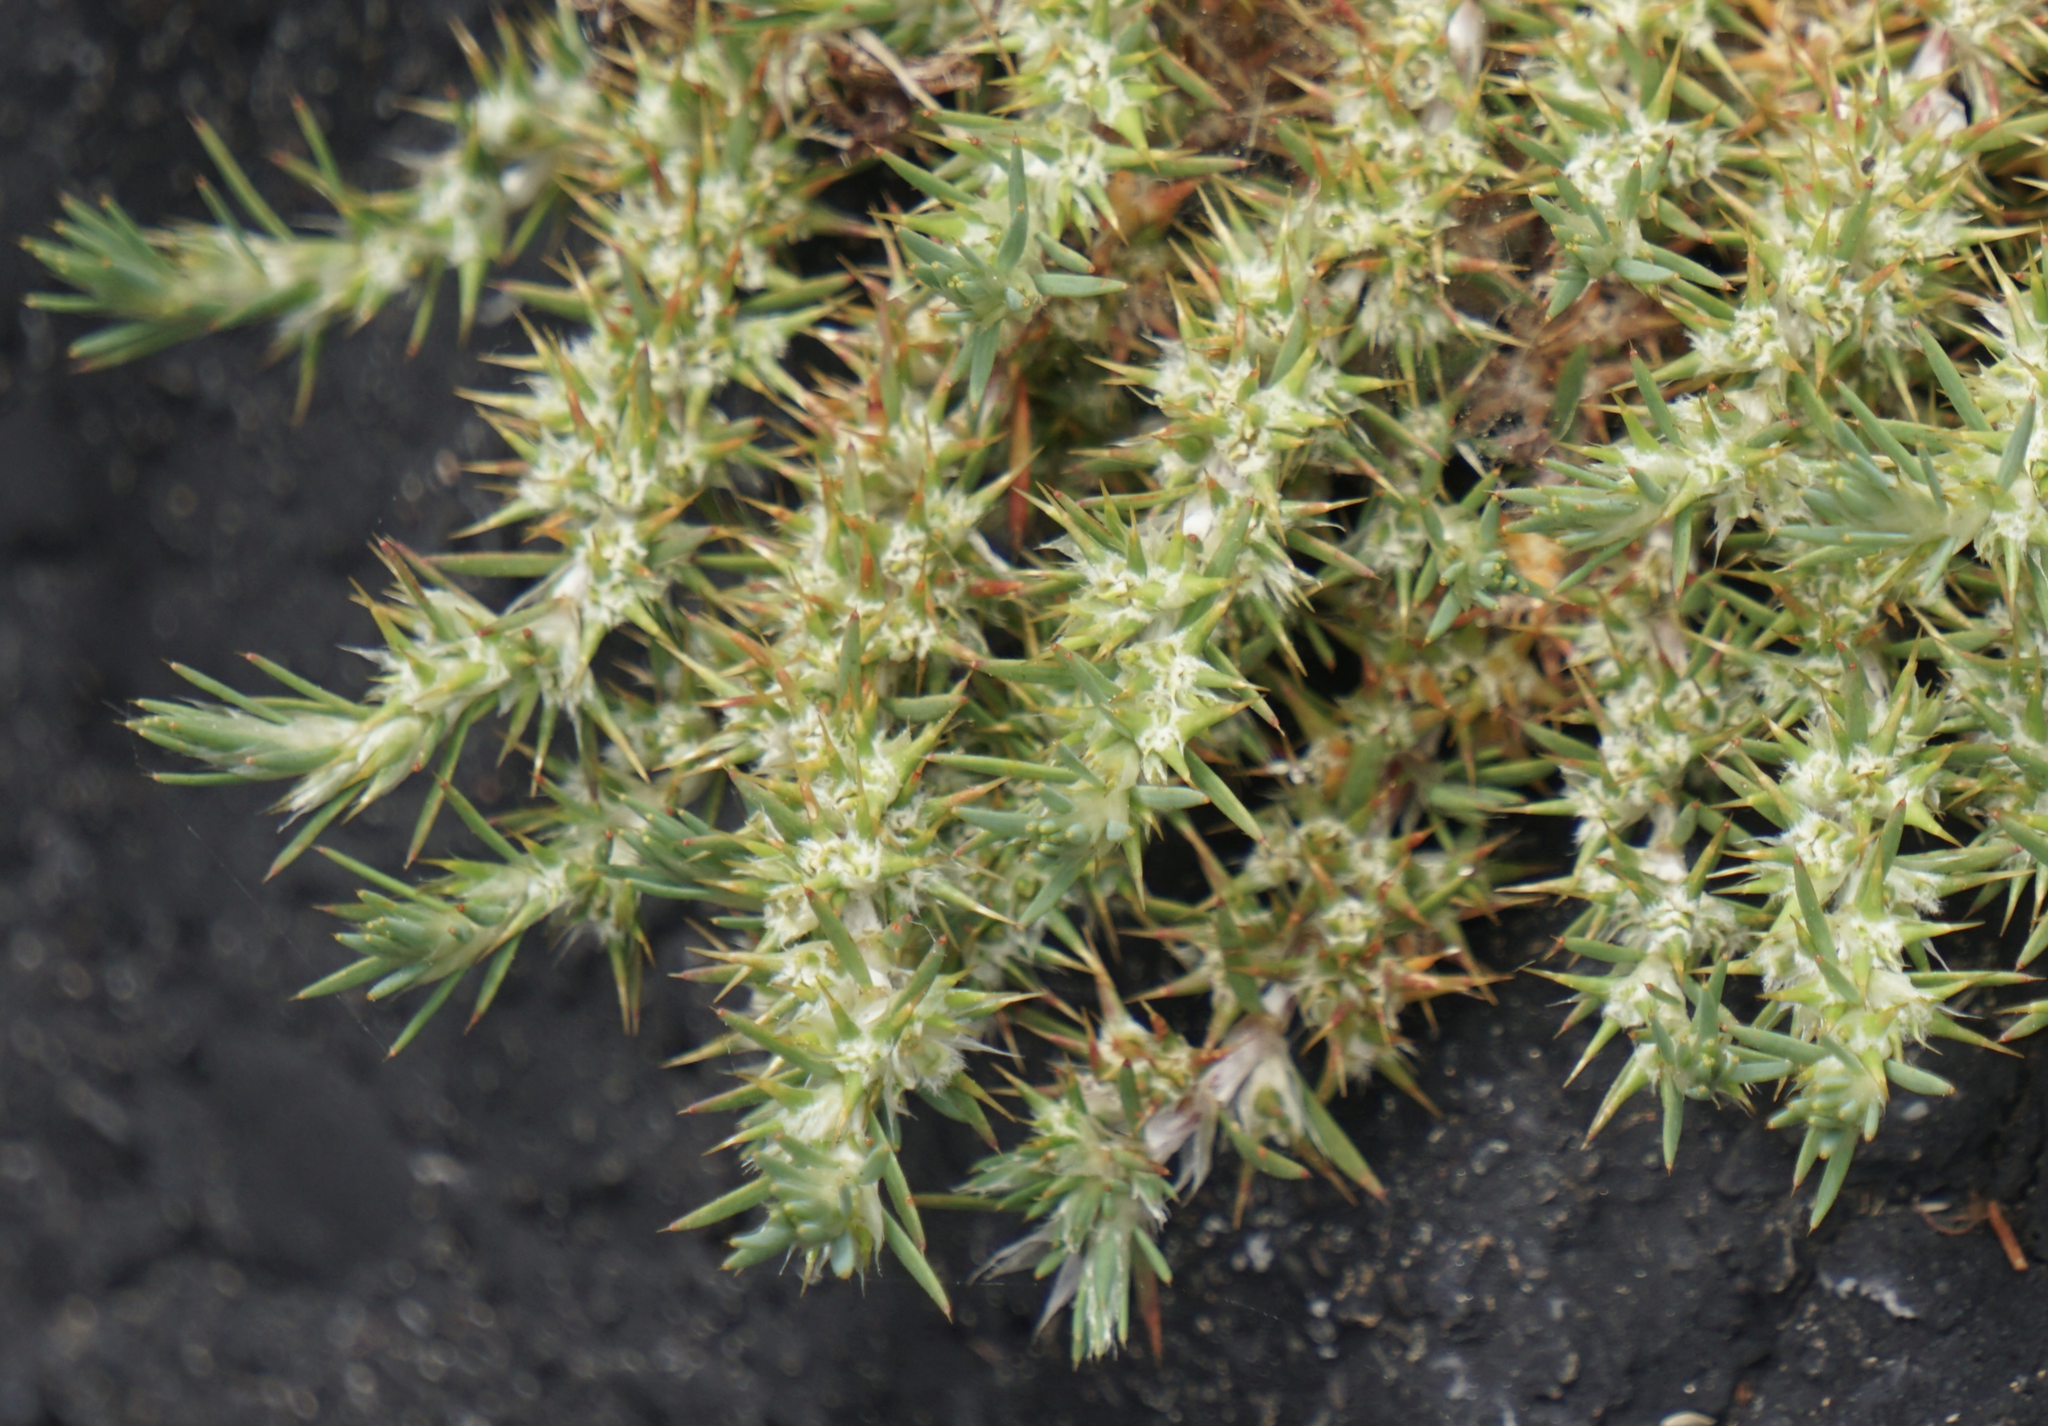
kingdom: Plantae
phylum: Tracheophyta
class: Magnoliopsida
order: Caryophyllales
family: Caryophyllaceae
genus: Cardionema
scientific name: Cardionema ramosissima
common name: Sandcarpet
